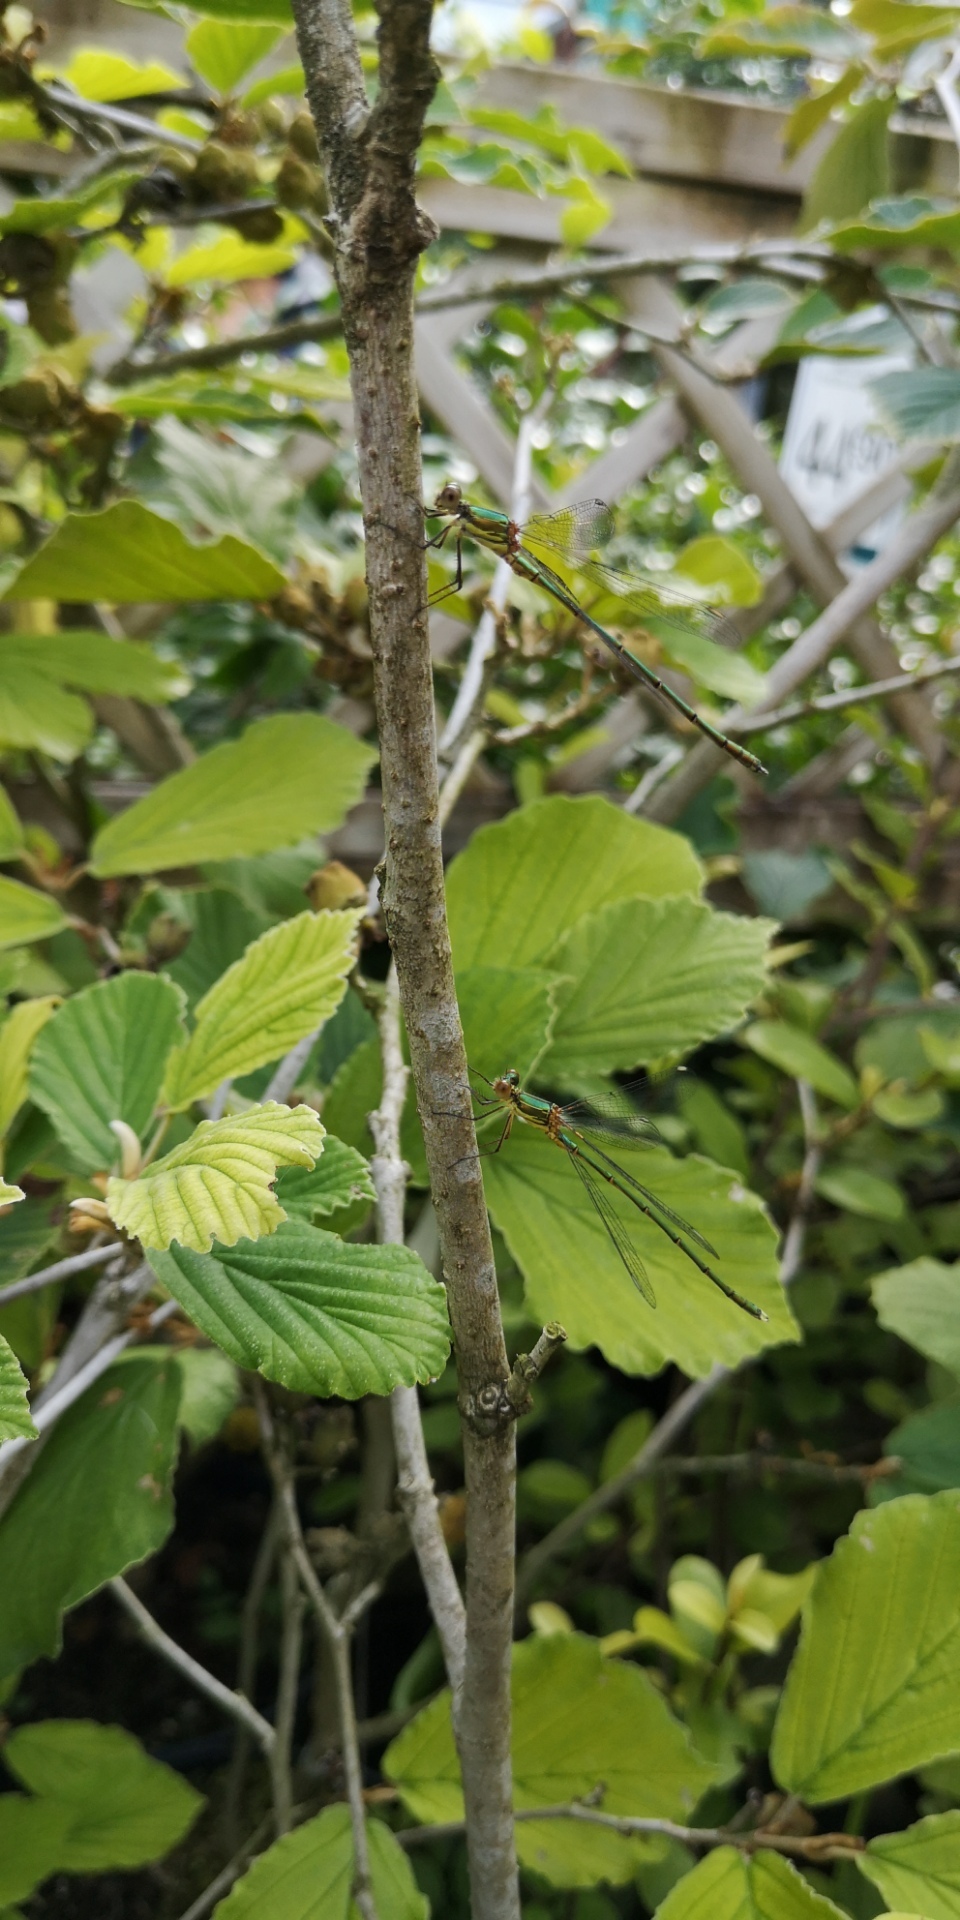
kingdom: Animalia
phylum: Arthropoda
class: Insecta
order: Odonata
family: Lestidae
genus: Chalcolestes
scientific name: Chalcolestes viridis
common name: Green emerald damselfly
